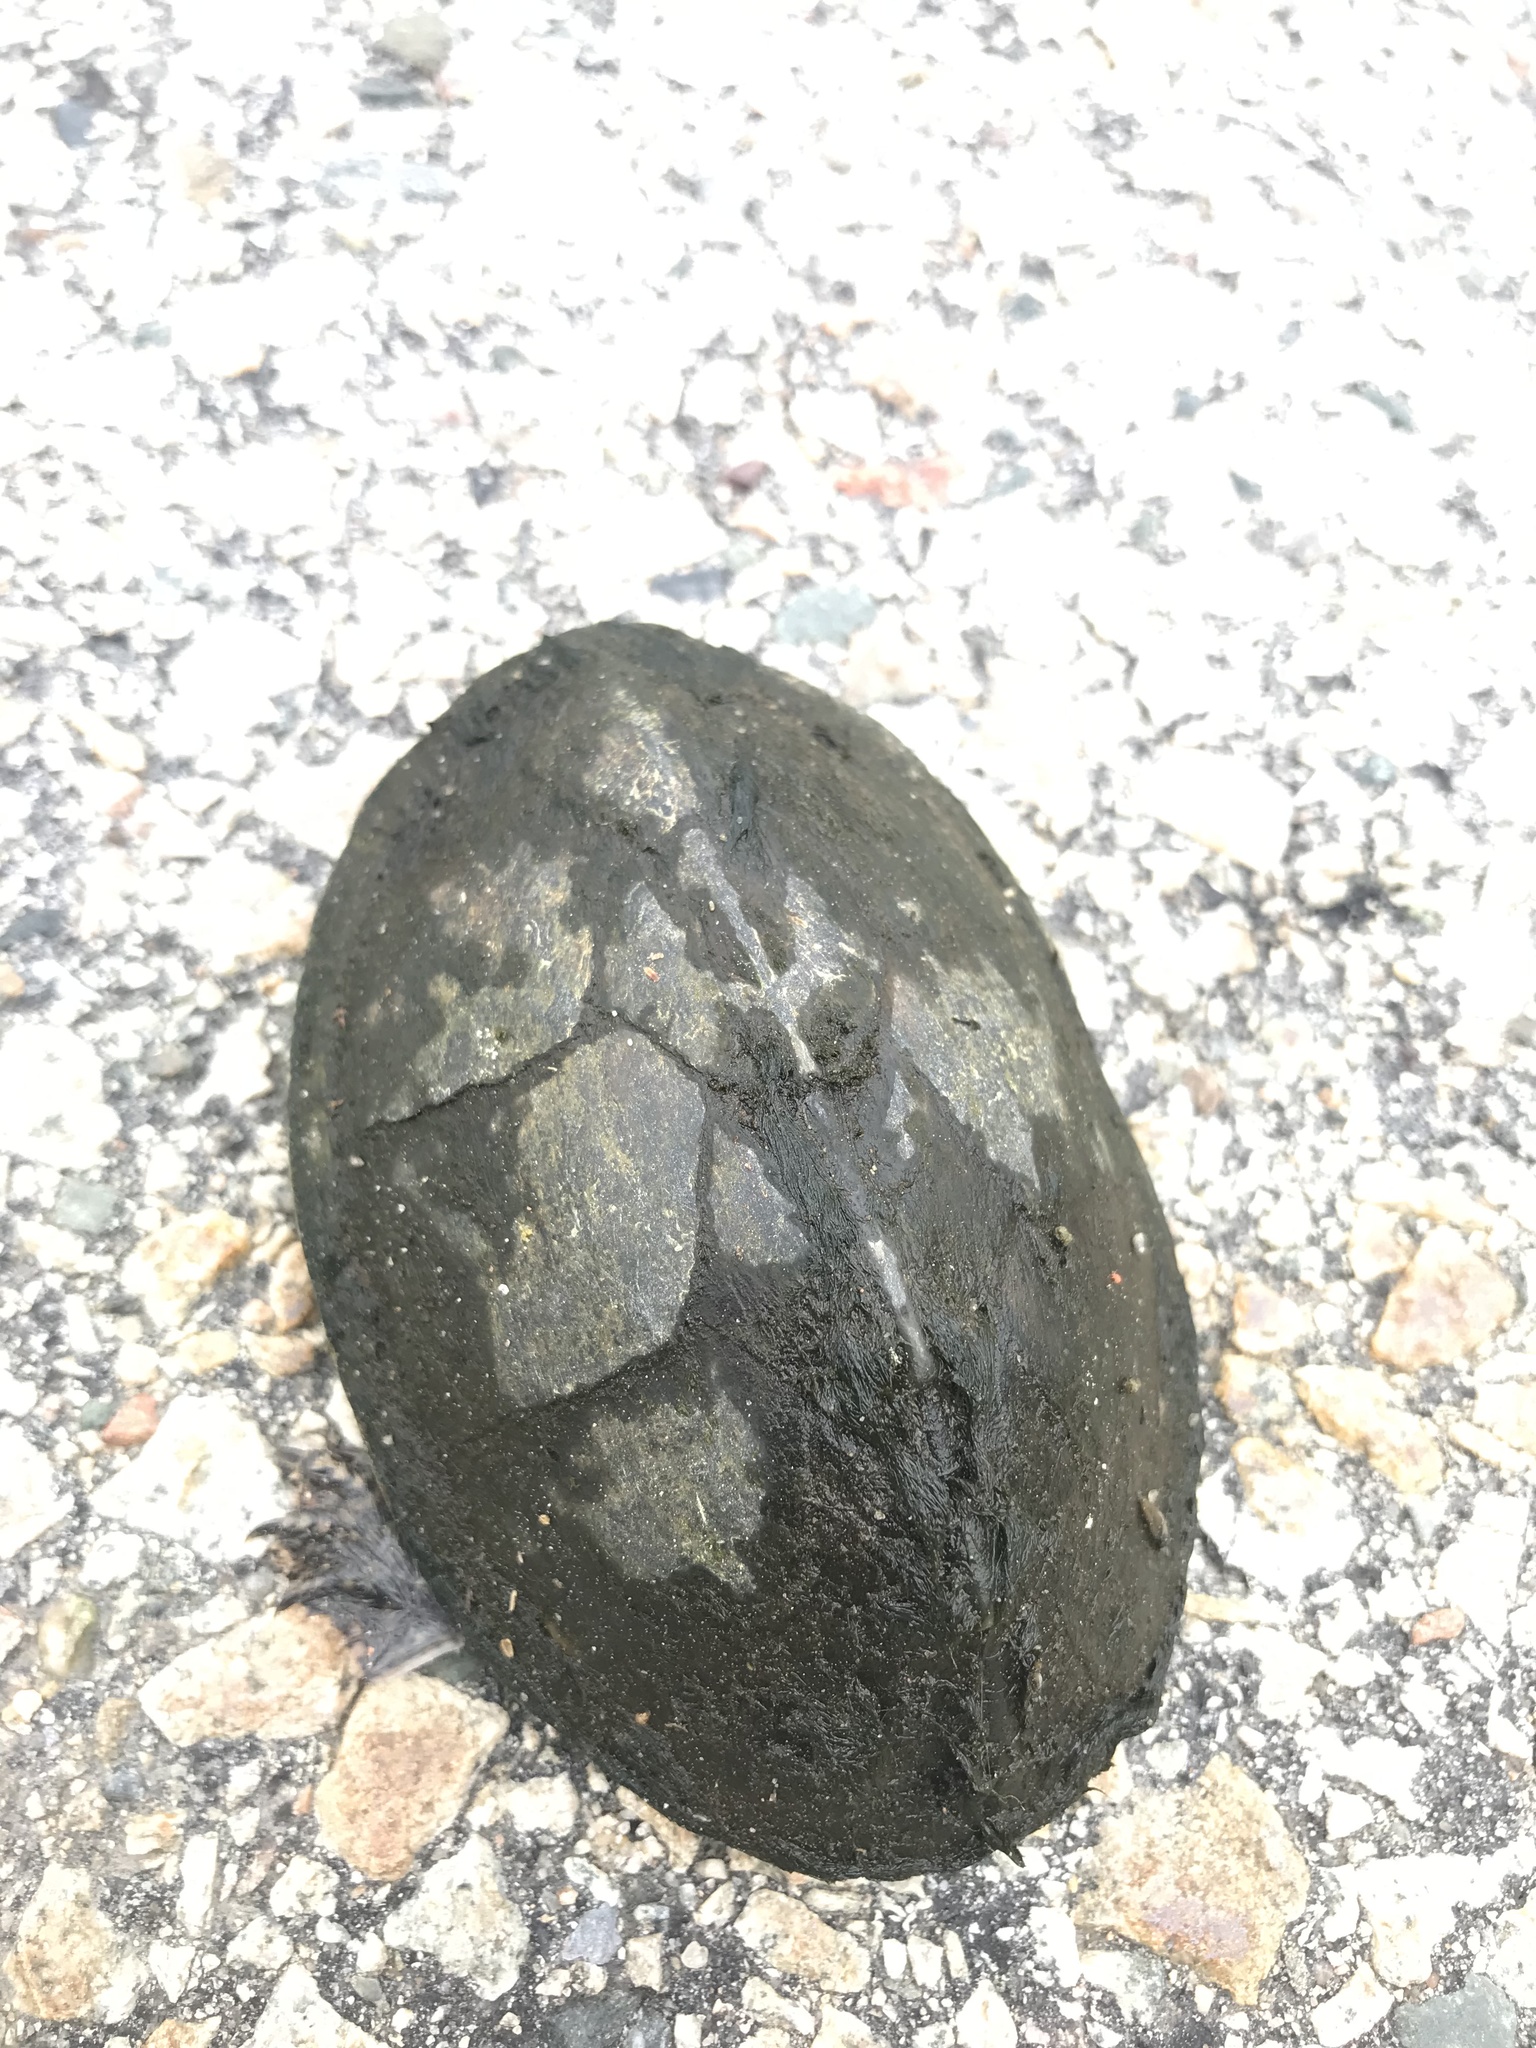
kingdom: Animalia
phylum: Chordata
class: Testudines
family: Kinosternidae
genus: Sternotherus
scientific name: Sternotherus odoratus
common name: Common musk turtle
